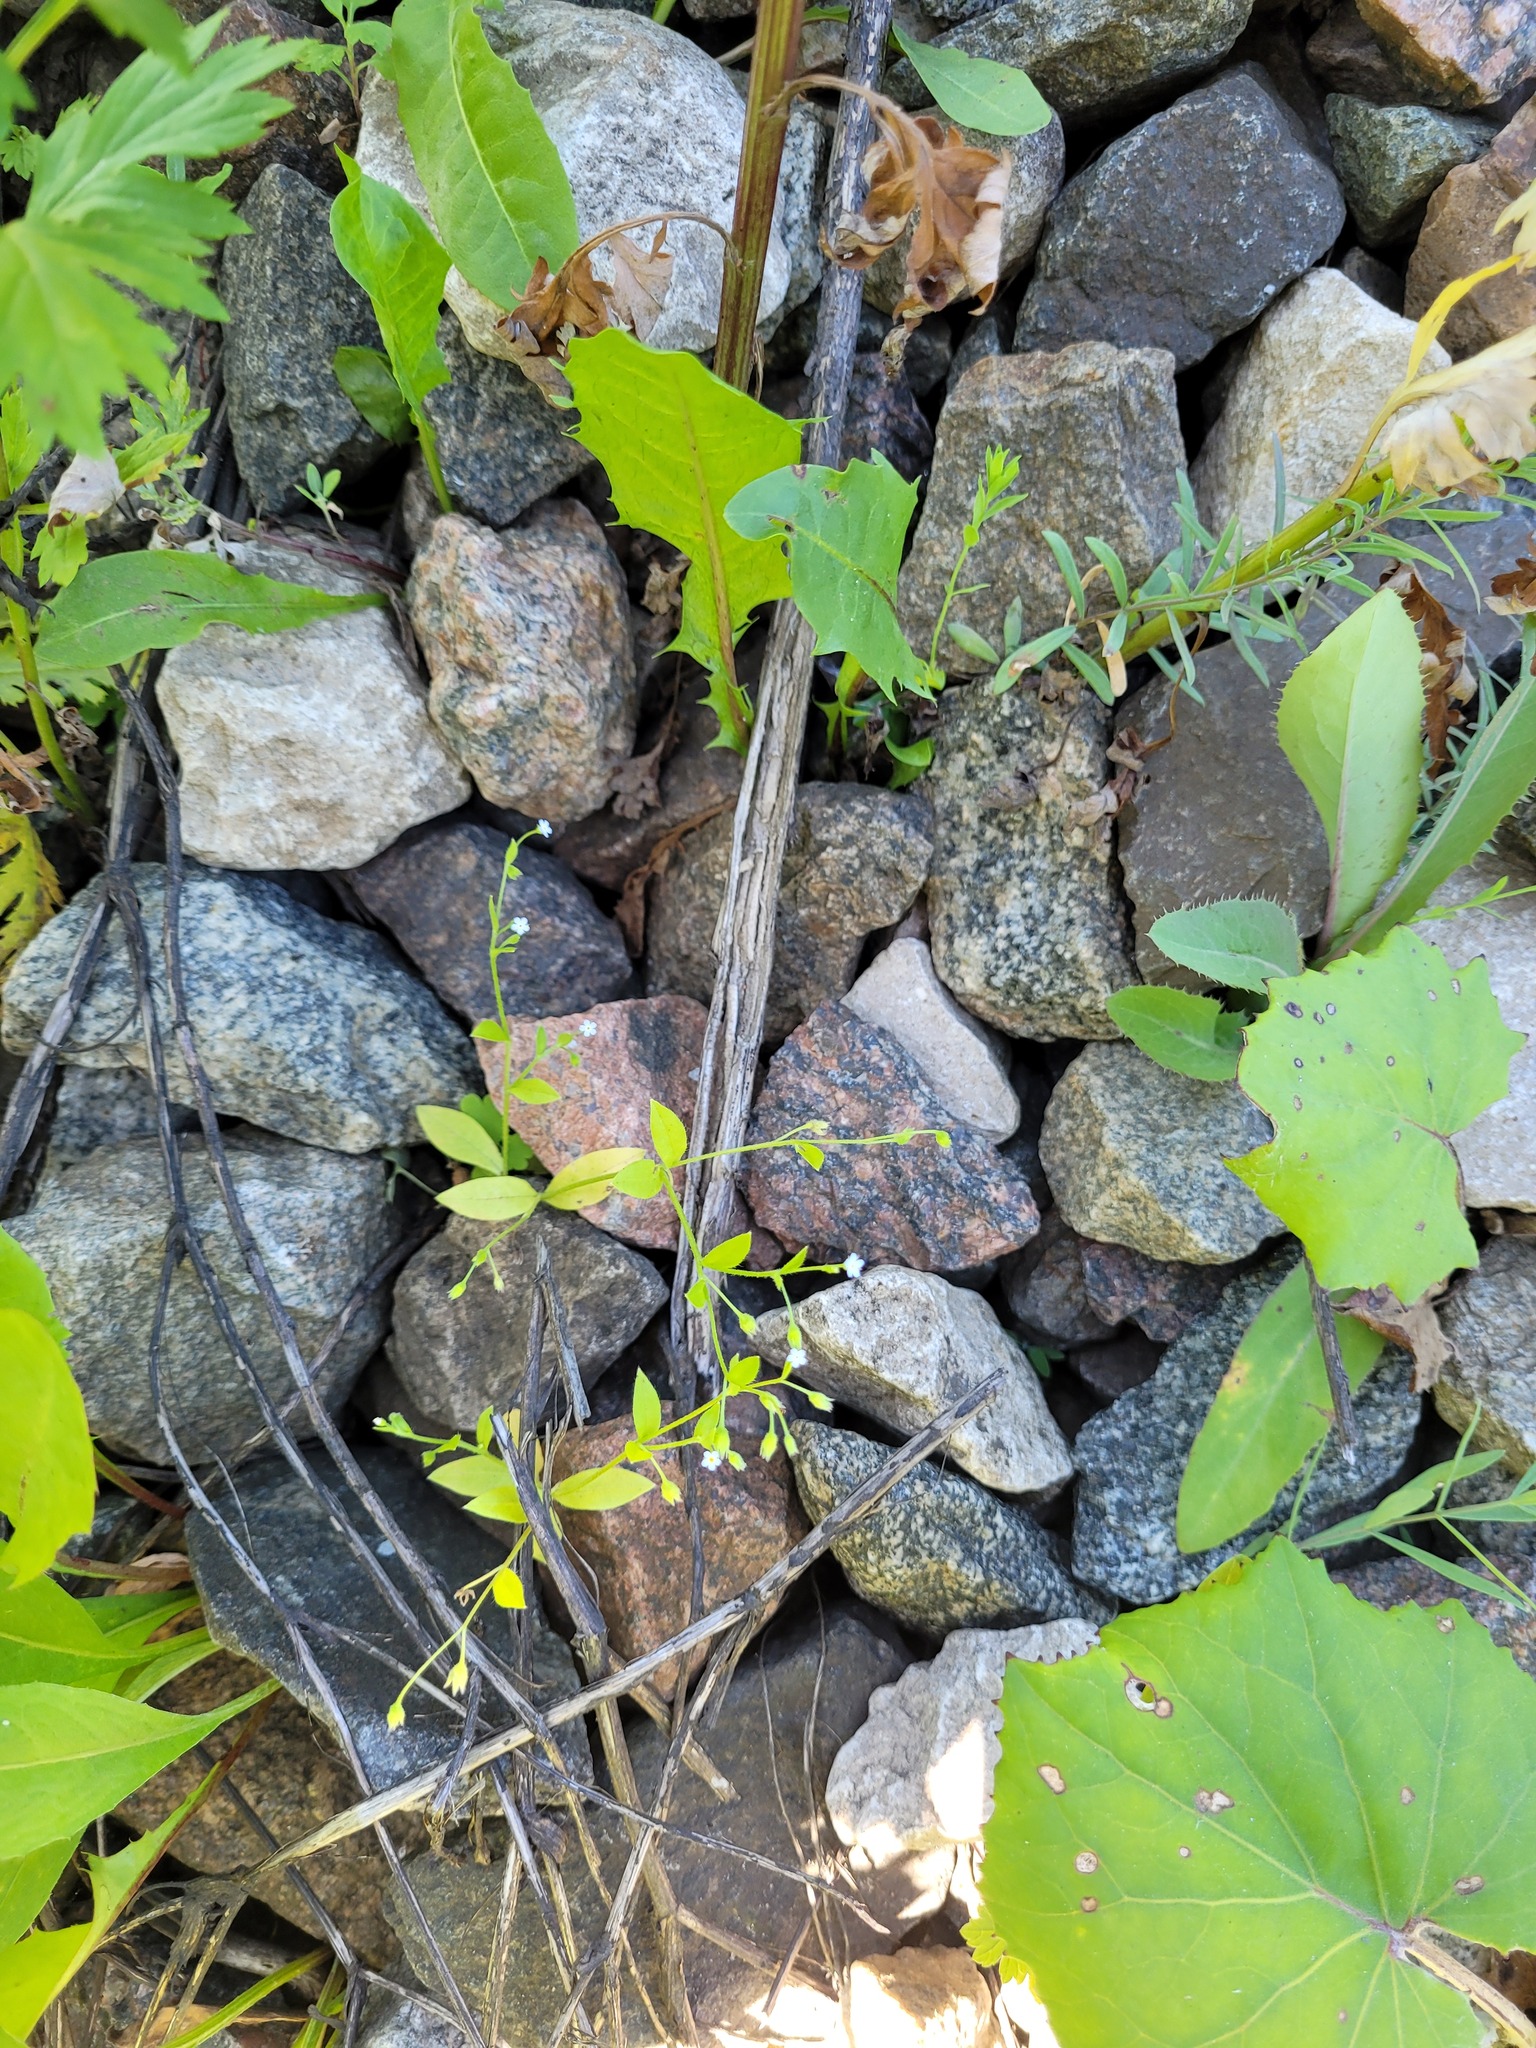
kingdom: Plantae
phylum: Tracheophyta
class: Magnoliopsida
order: Boraginales
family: Boraginaceae
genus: Myosotis
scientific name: Myosotis sparsiflora
